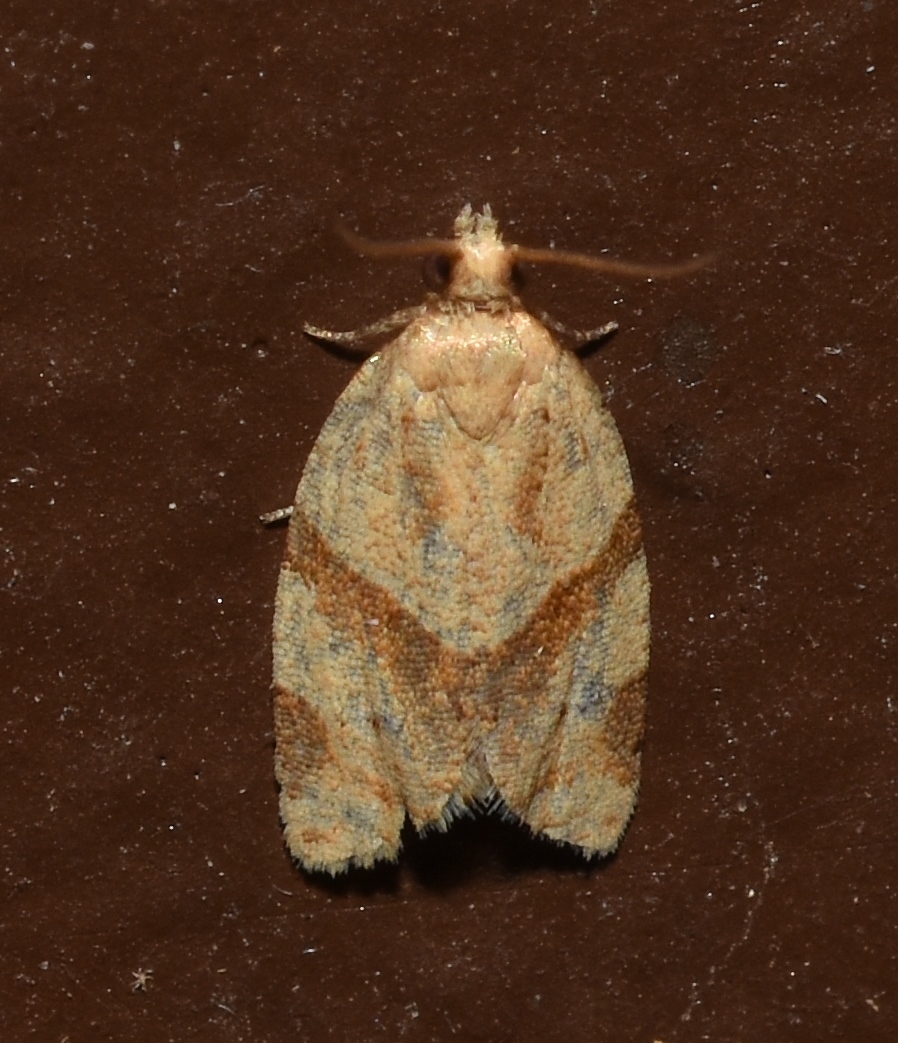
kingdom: Animalia
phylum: Arthropoda
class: Insecta
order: Lepidoptera
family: Tortricidae
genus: Clepsis
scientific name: Clepsis peritana
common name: Garden tortrix
